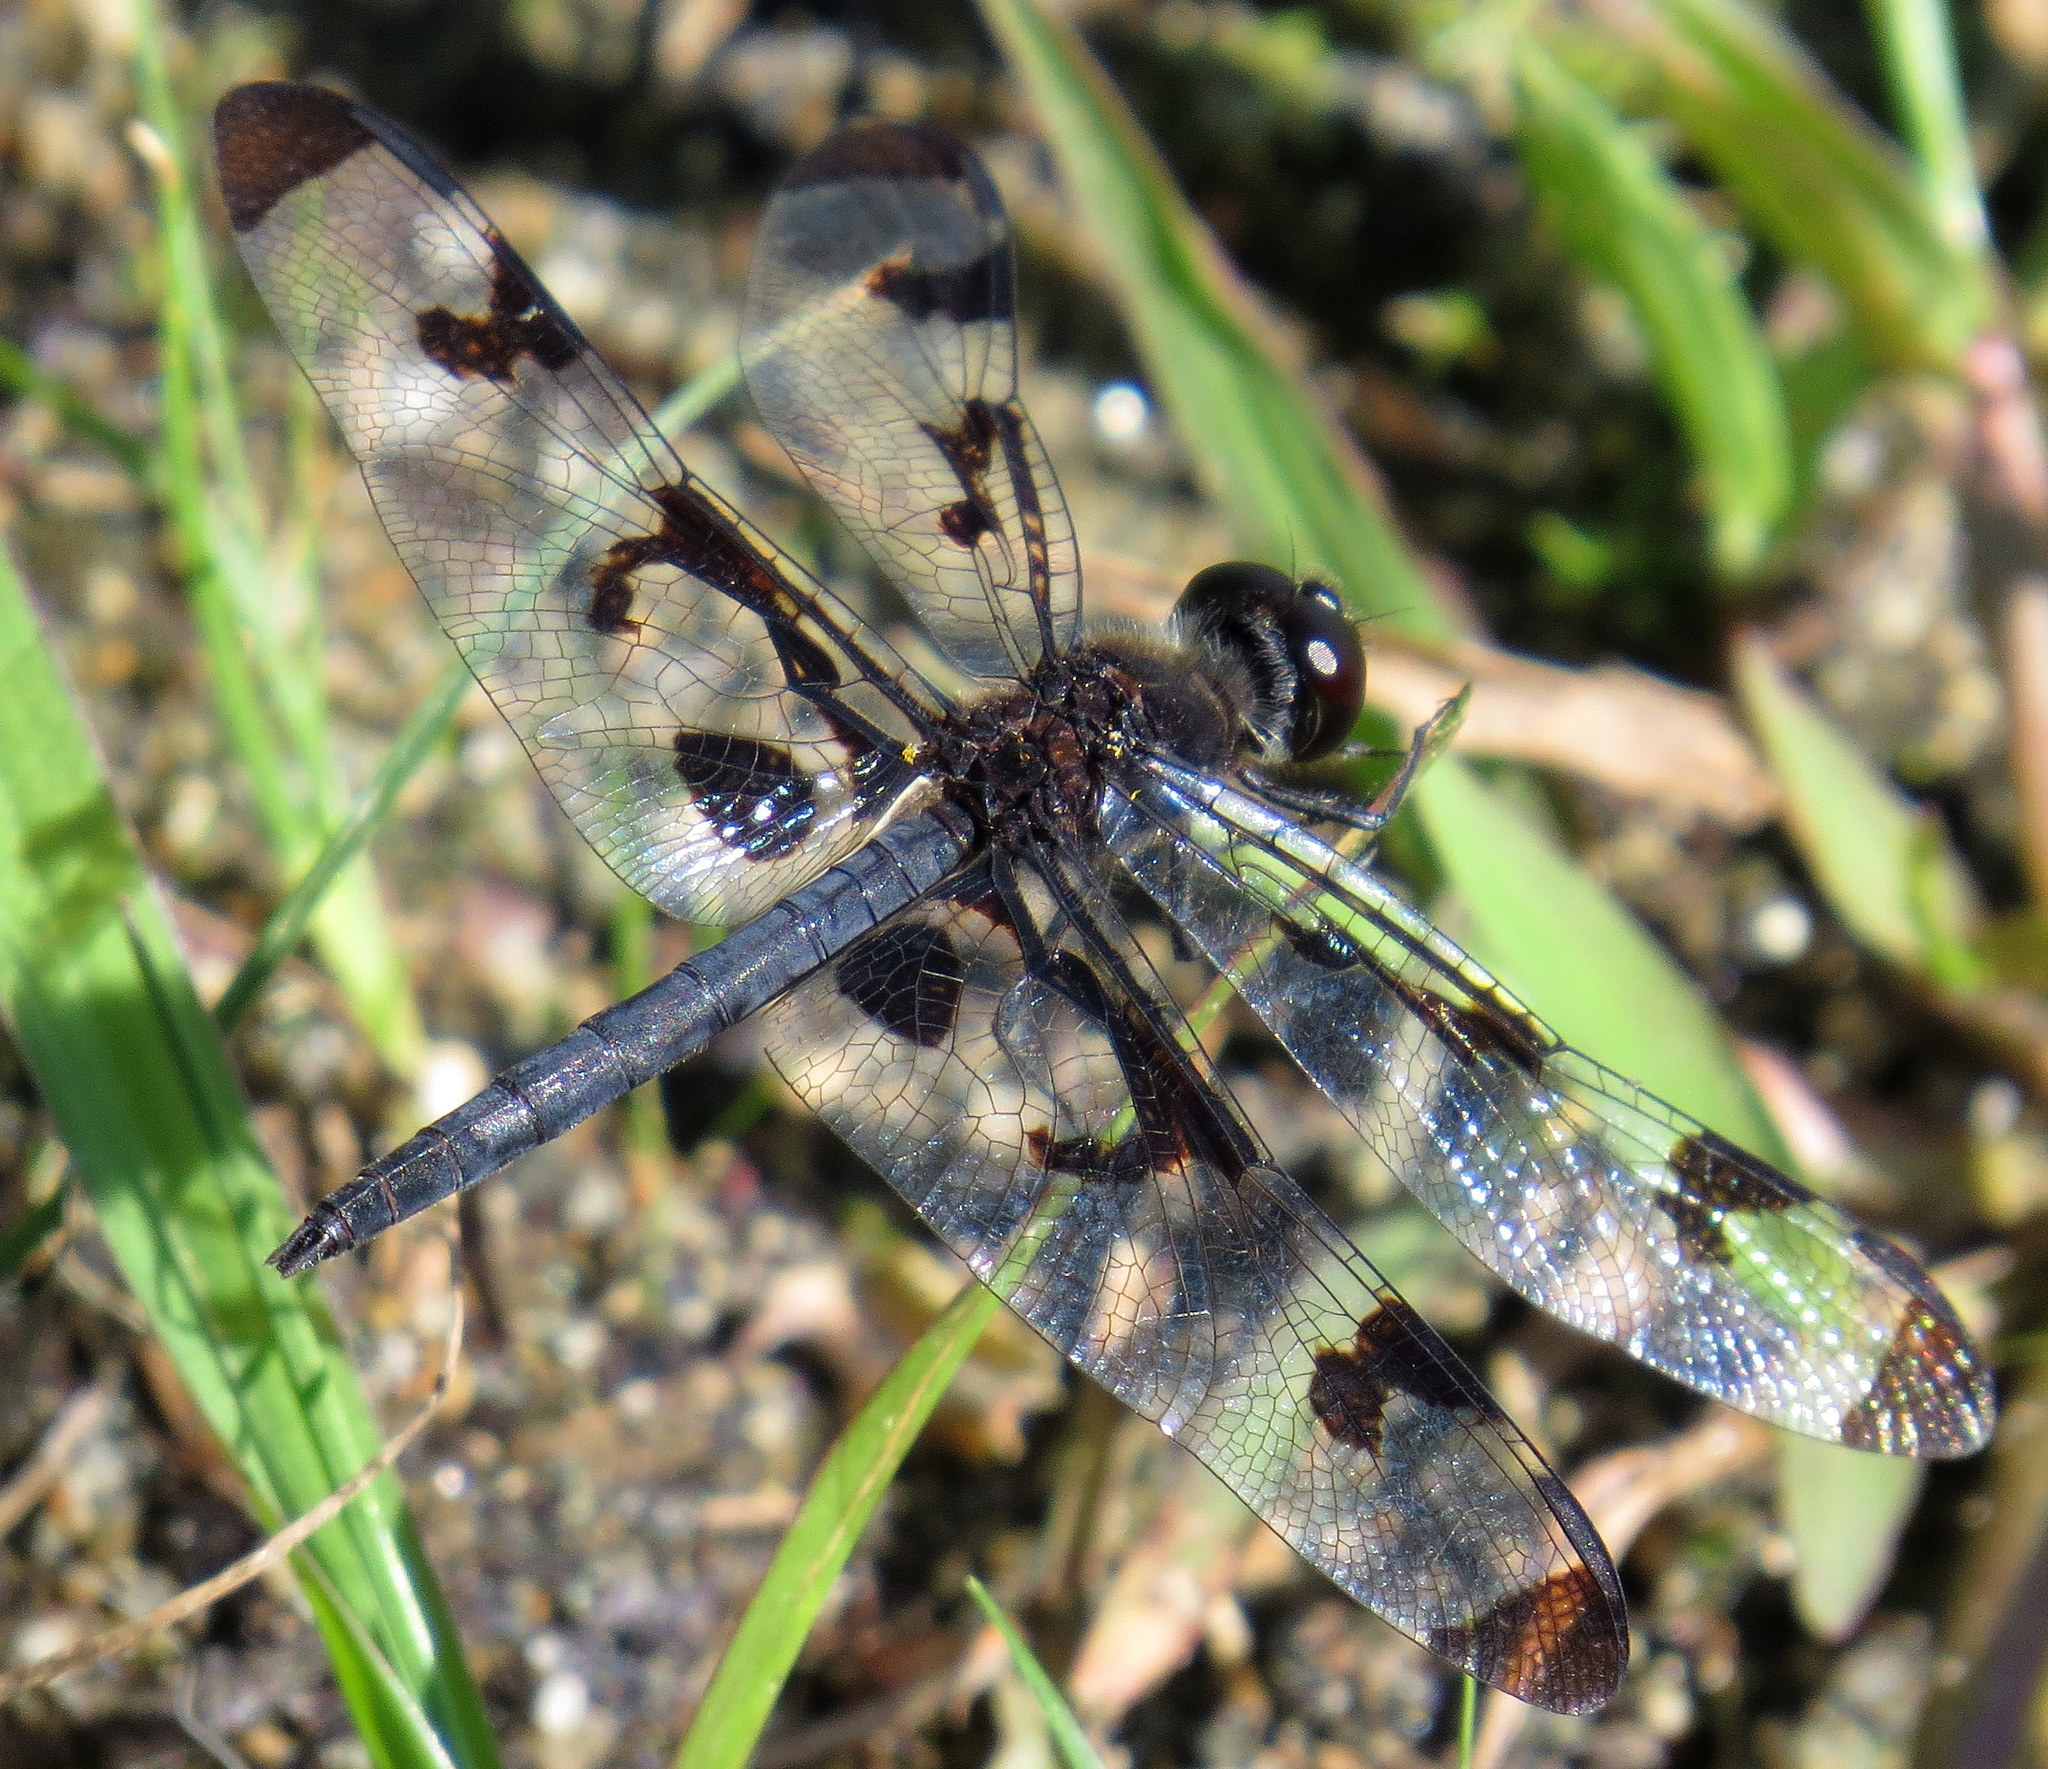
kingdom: Animalia
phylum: Arthropoda
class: Insecta
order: Odonata
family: Libellulidae
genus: Celithemis
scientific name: Celithemis fasciata
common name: Banded pennant
